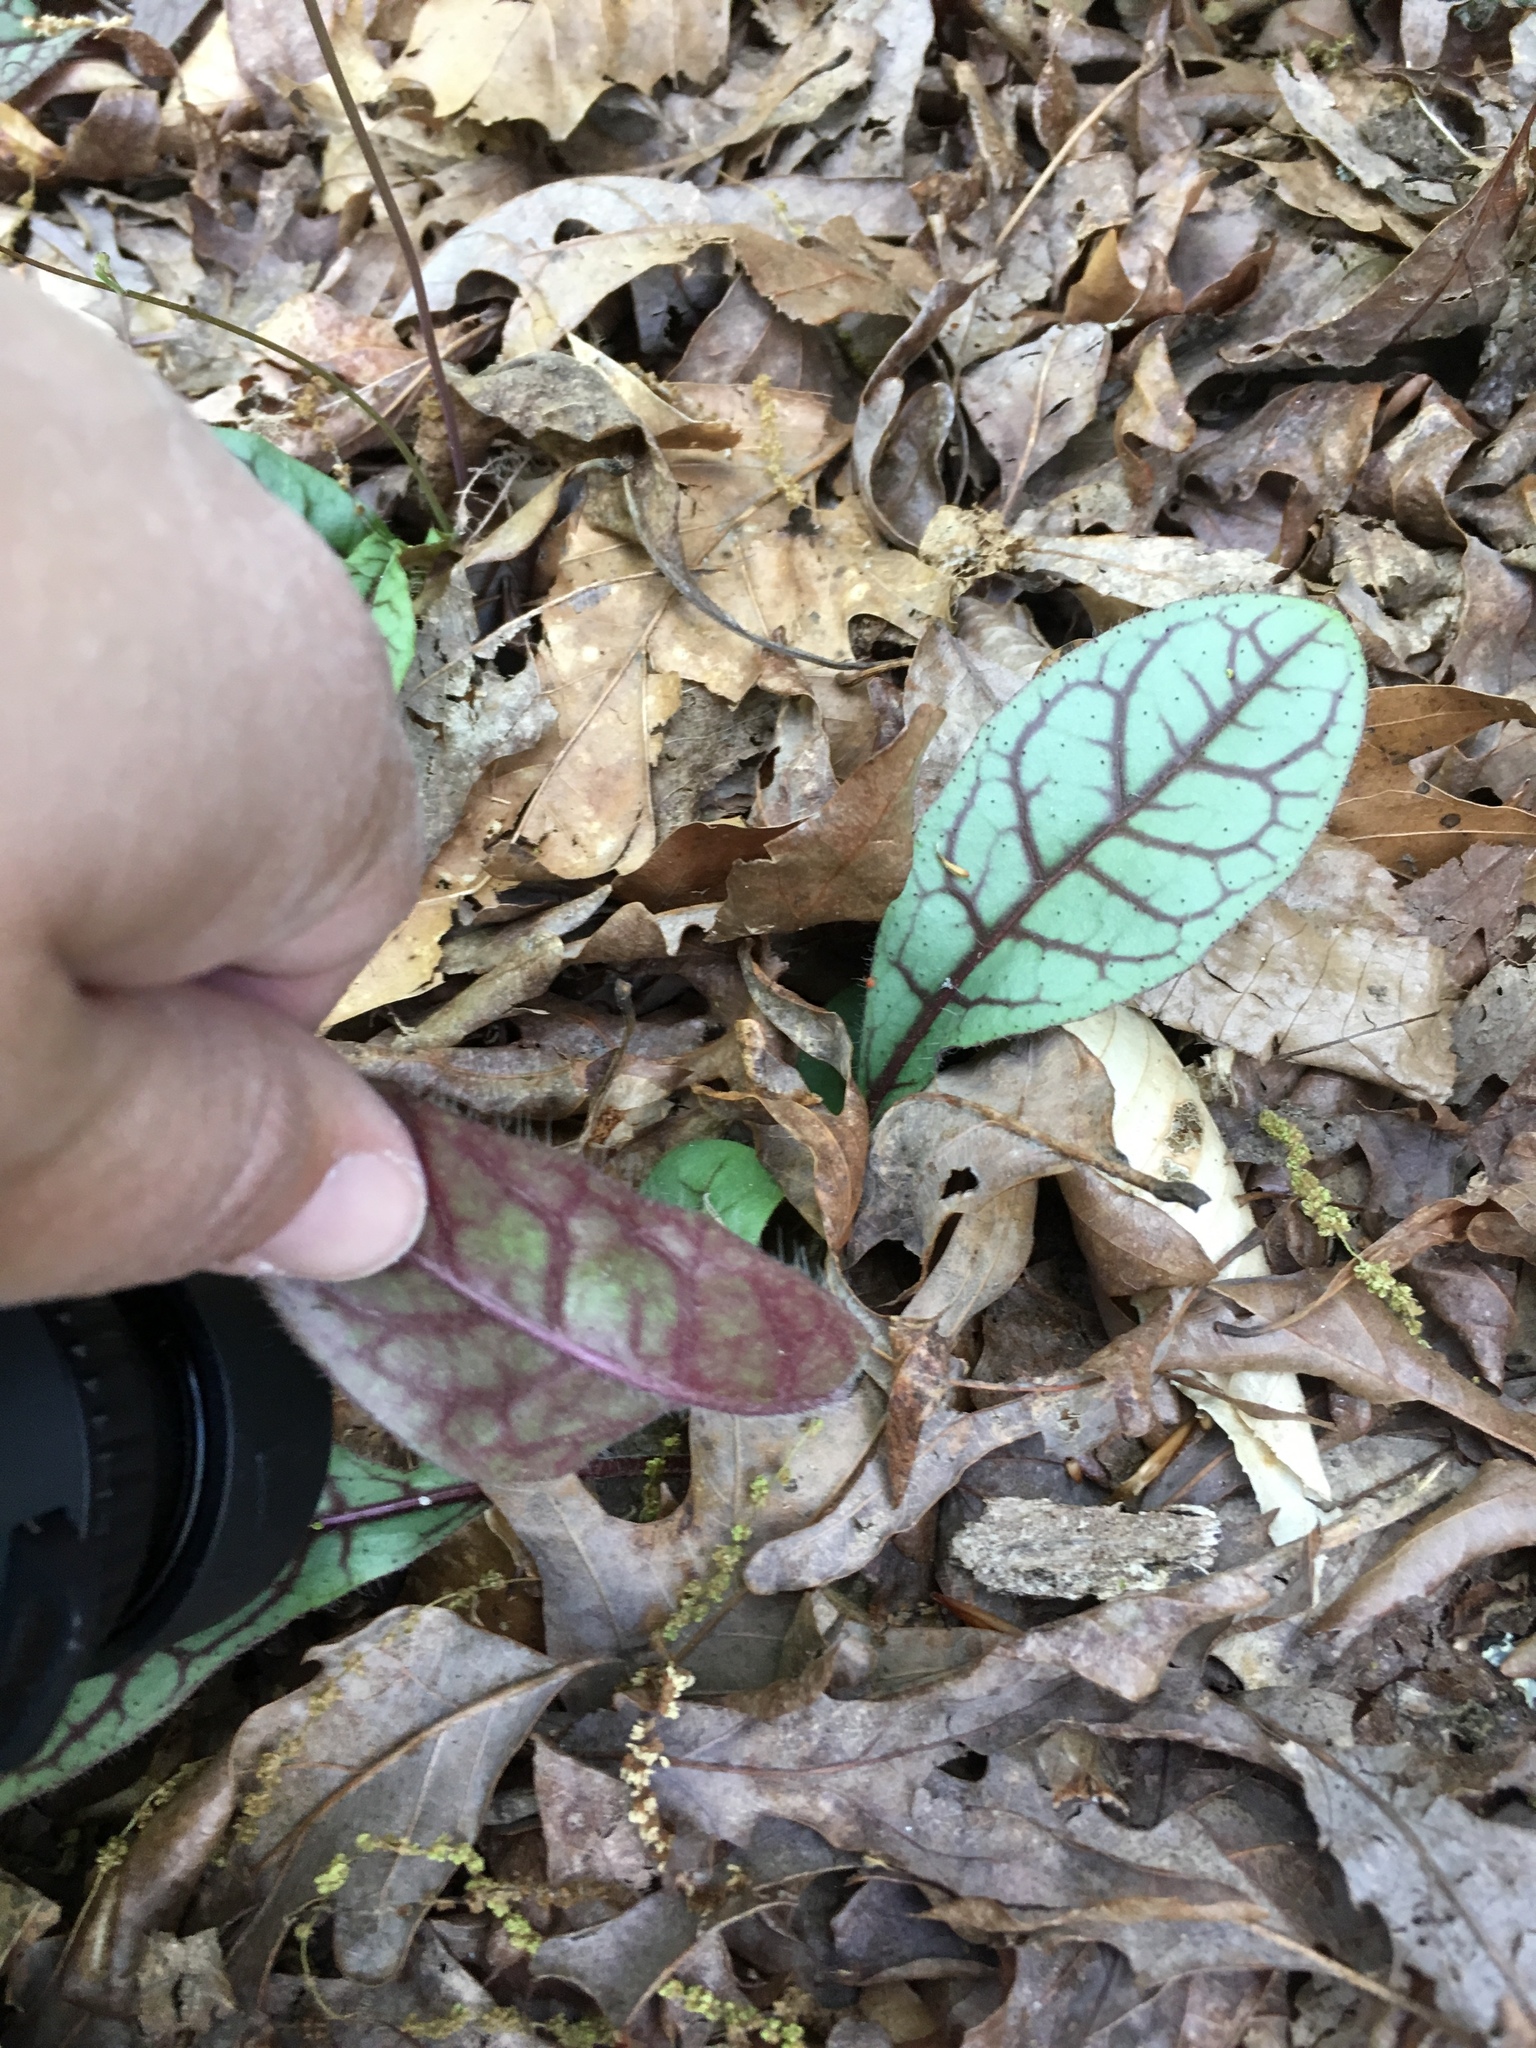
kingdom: Plantae
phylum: Tracheophyta
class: Magnoliopsida
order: Asterales
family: Asteraceae
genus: Hieracium
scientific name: Hieracium venosum
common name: Rattlesnake hawkweed
